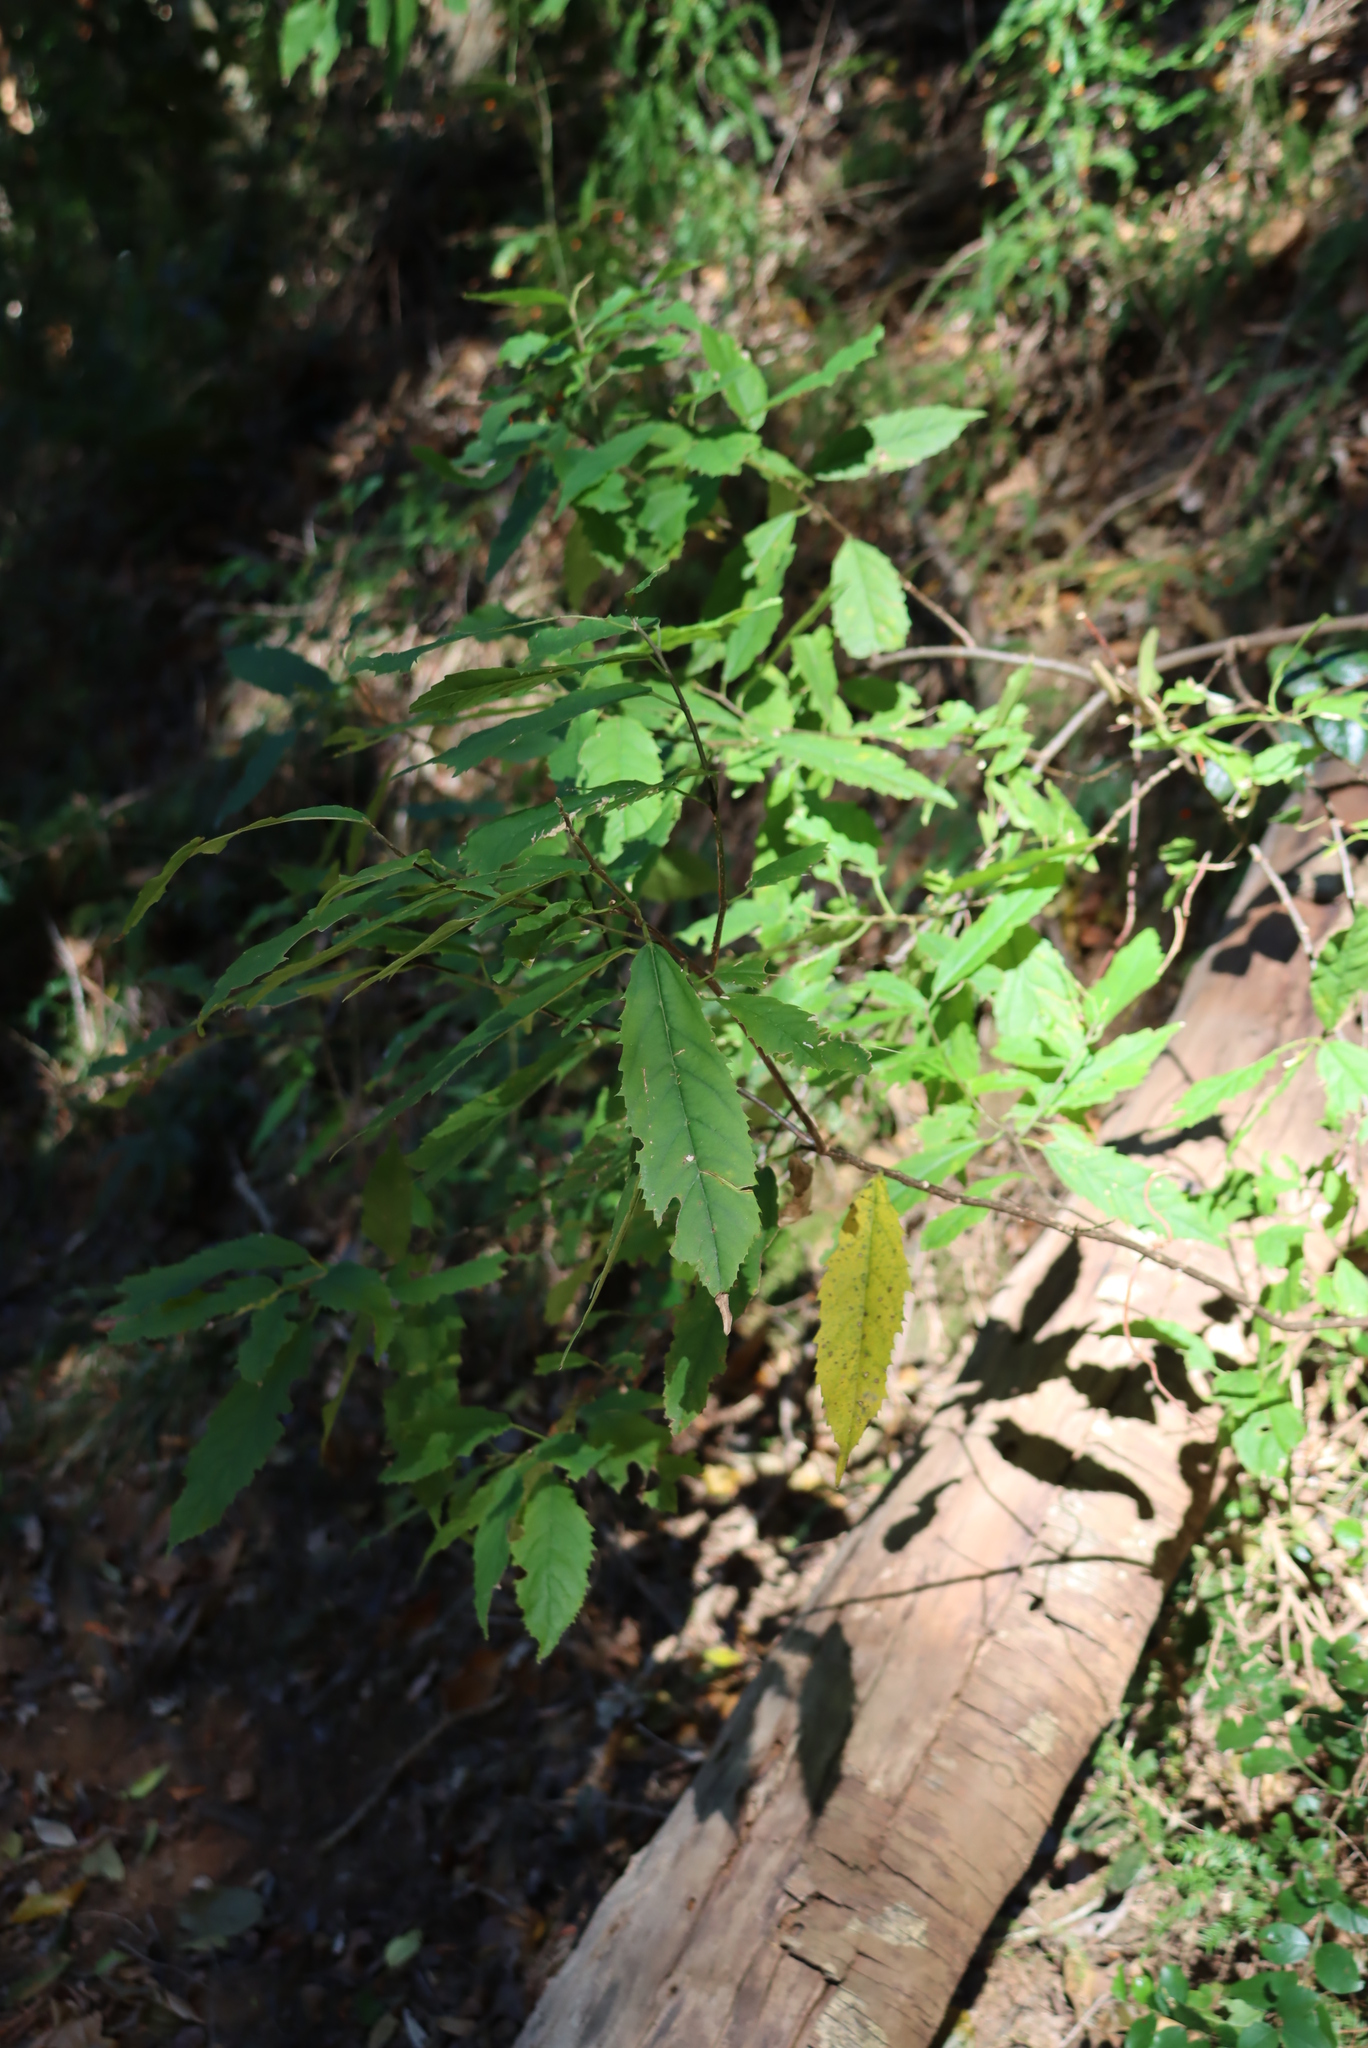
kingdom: Plantae
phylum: Tracheophyta
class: Magnoliopsida
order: Malpighiales
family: Achariaceae
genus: Kiggelaria
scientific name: Kiggelaria africana
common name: Wild peach
